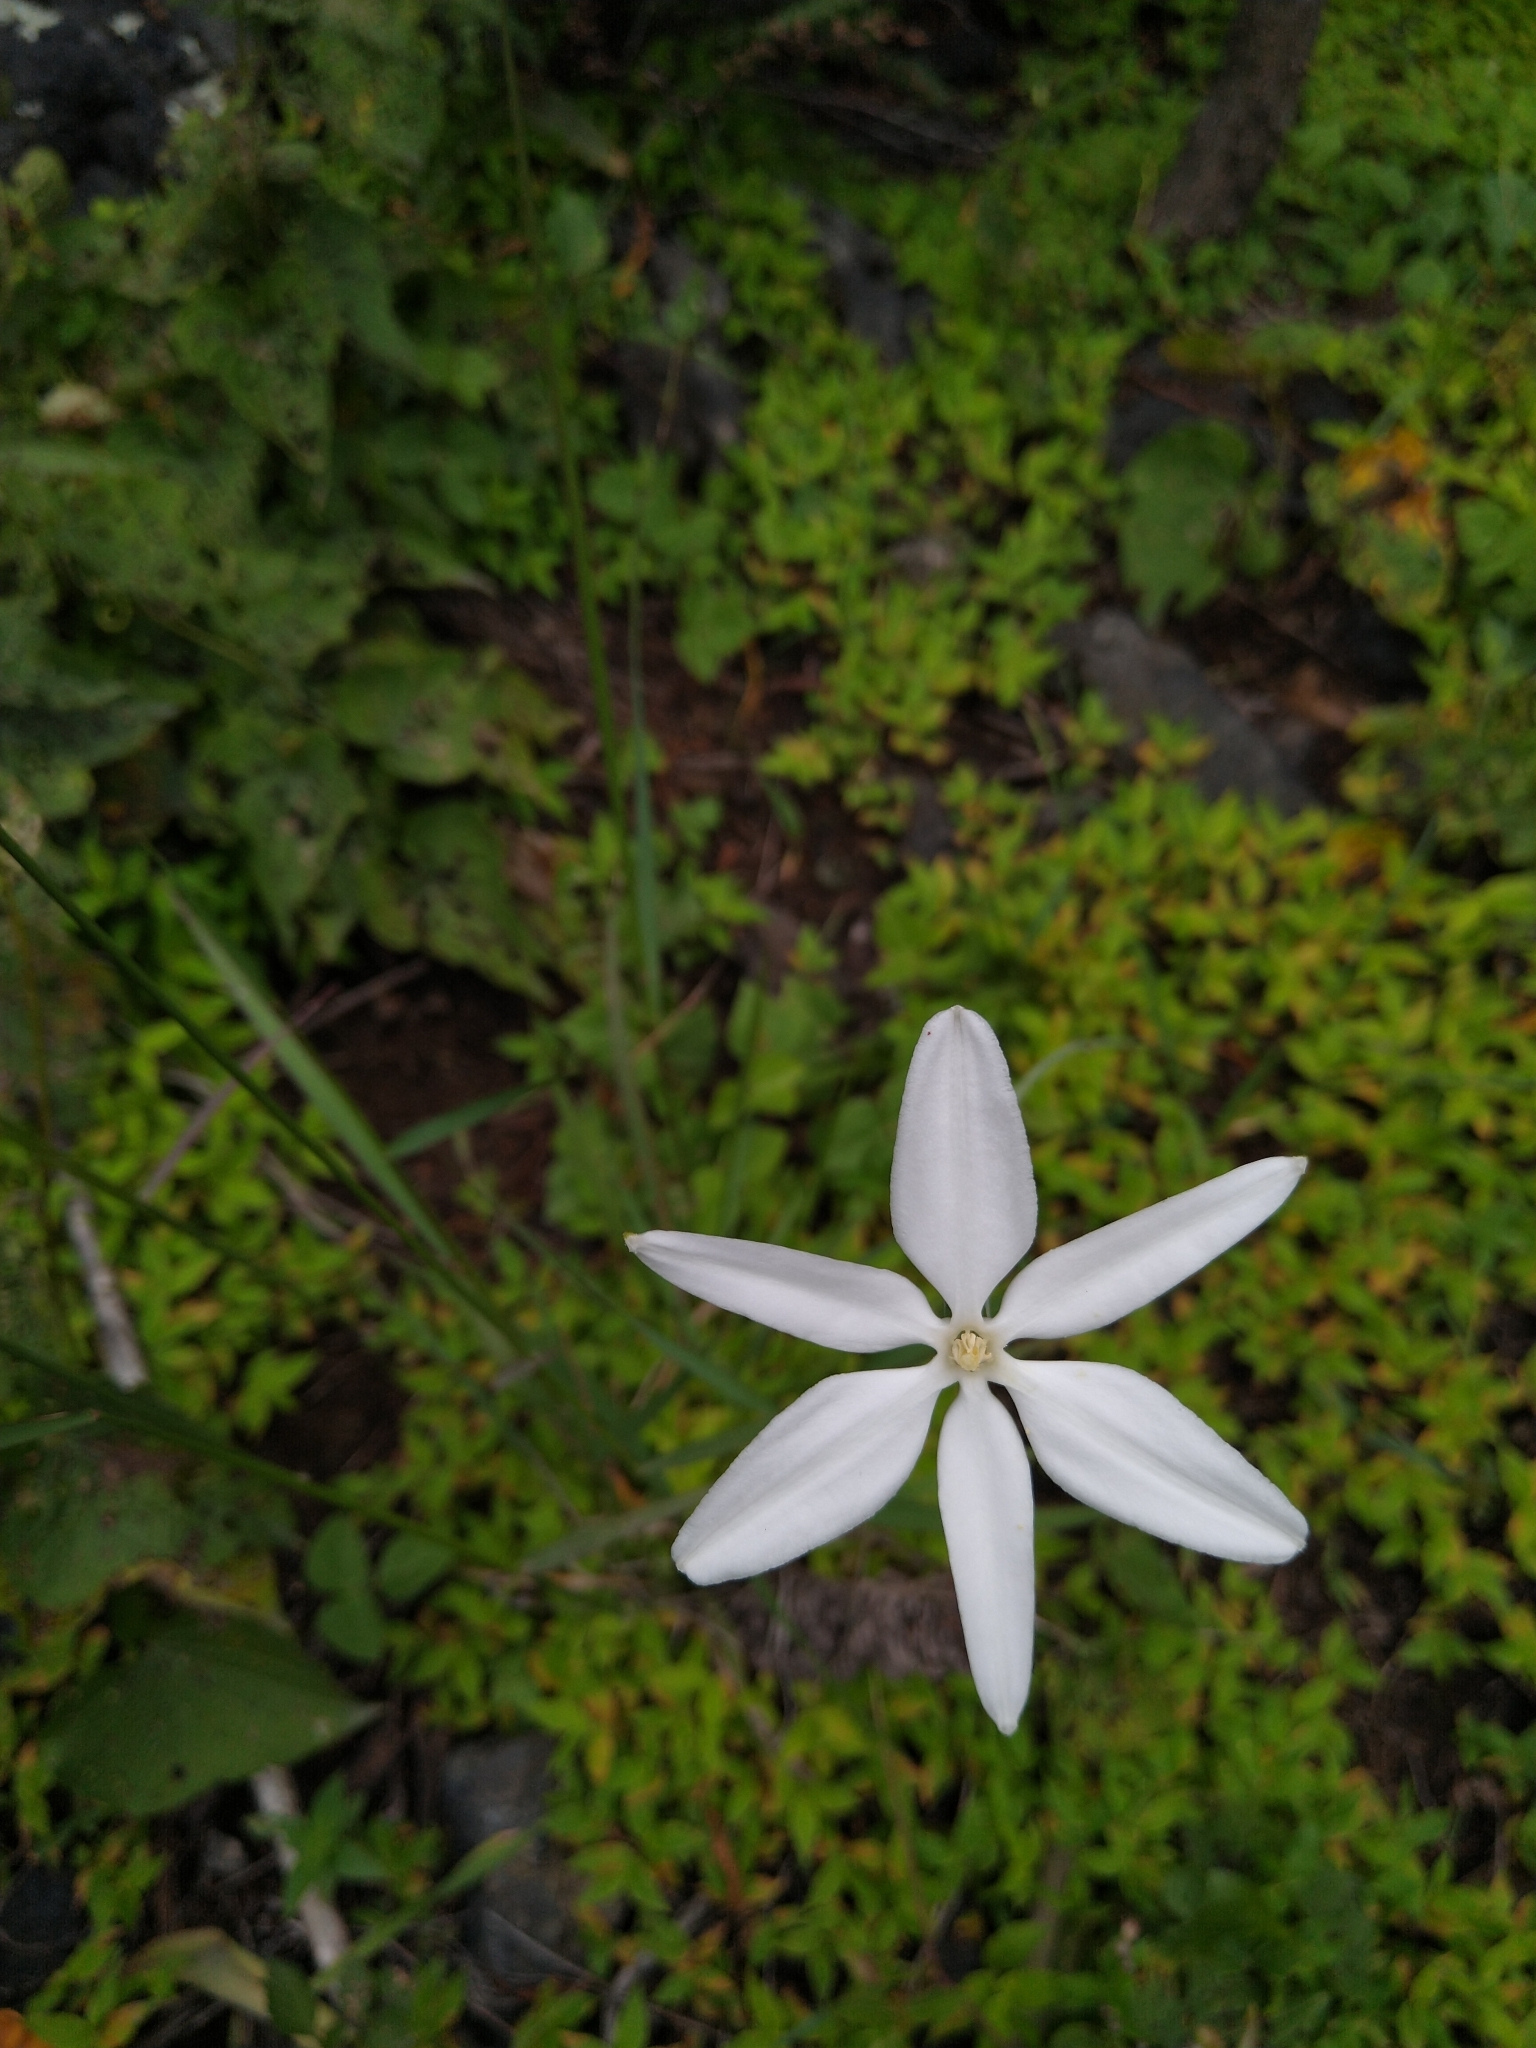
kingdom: Plantae
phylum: Tracheophyta
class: Liliopsida
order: Asparagales
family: Asparagaceae
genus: Milla
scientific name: Milla biflora
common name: Mexican-star
